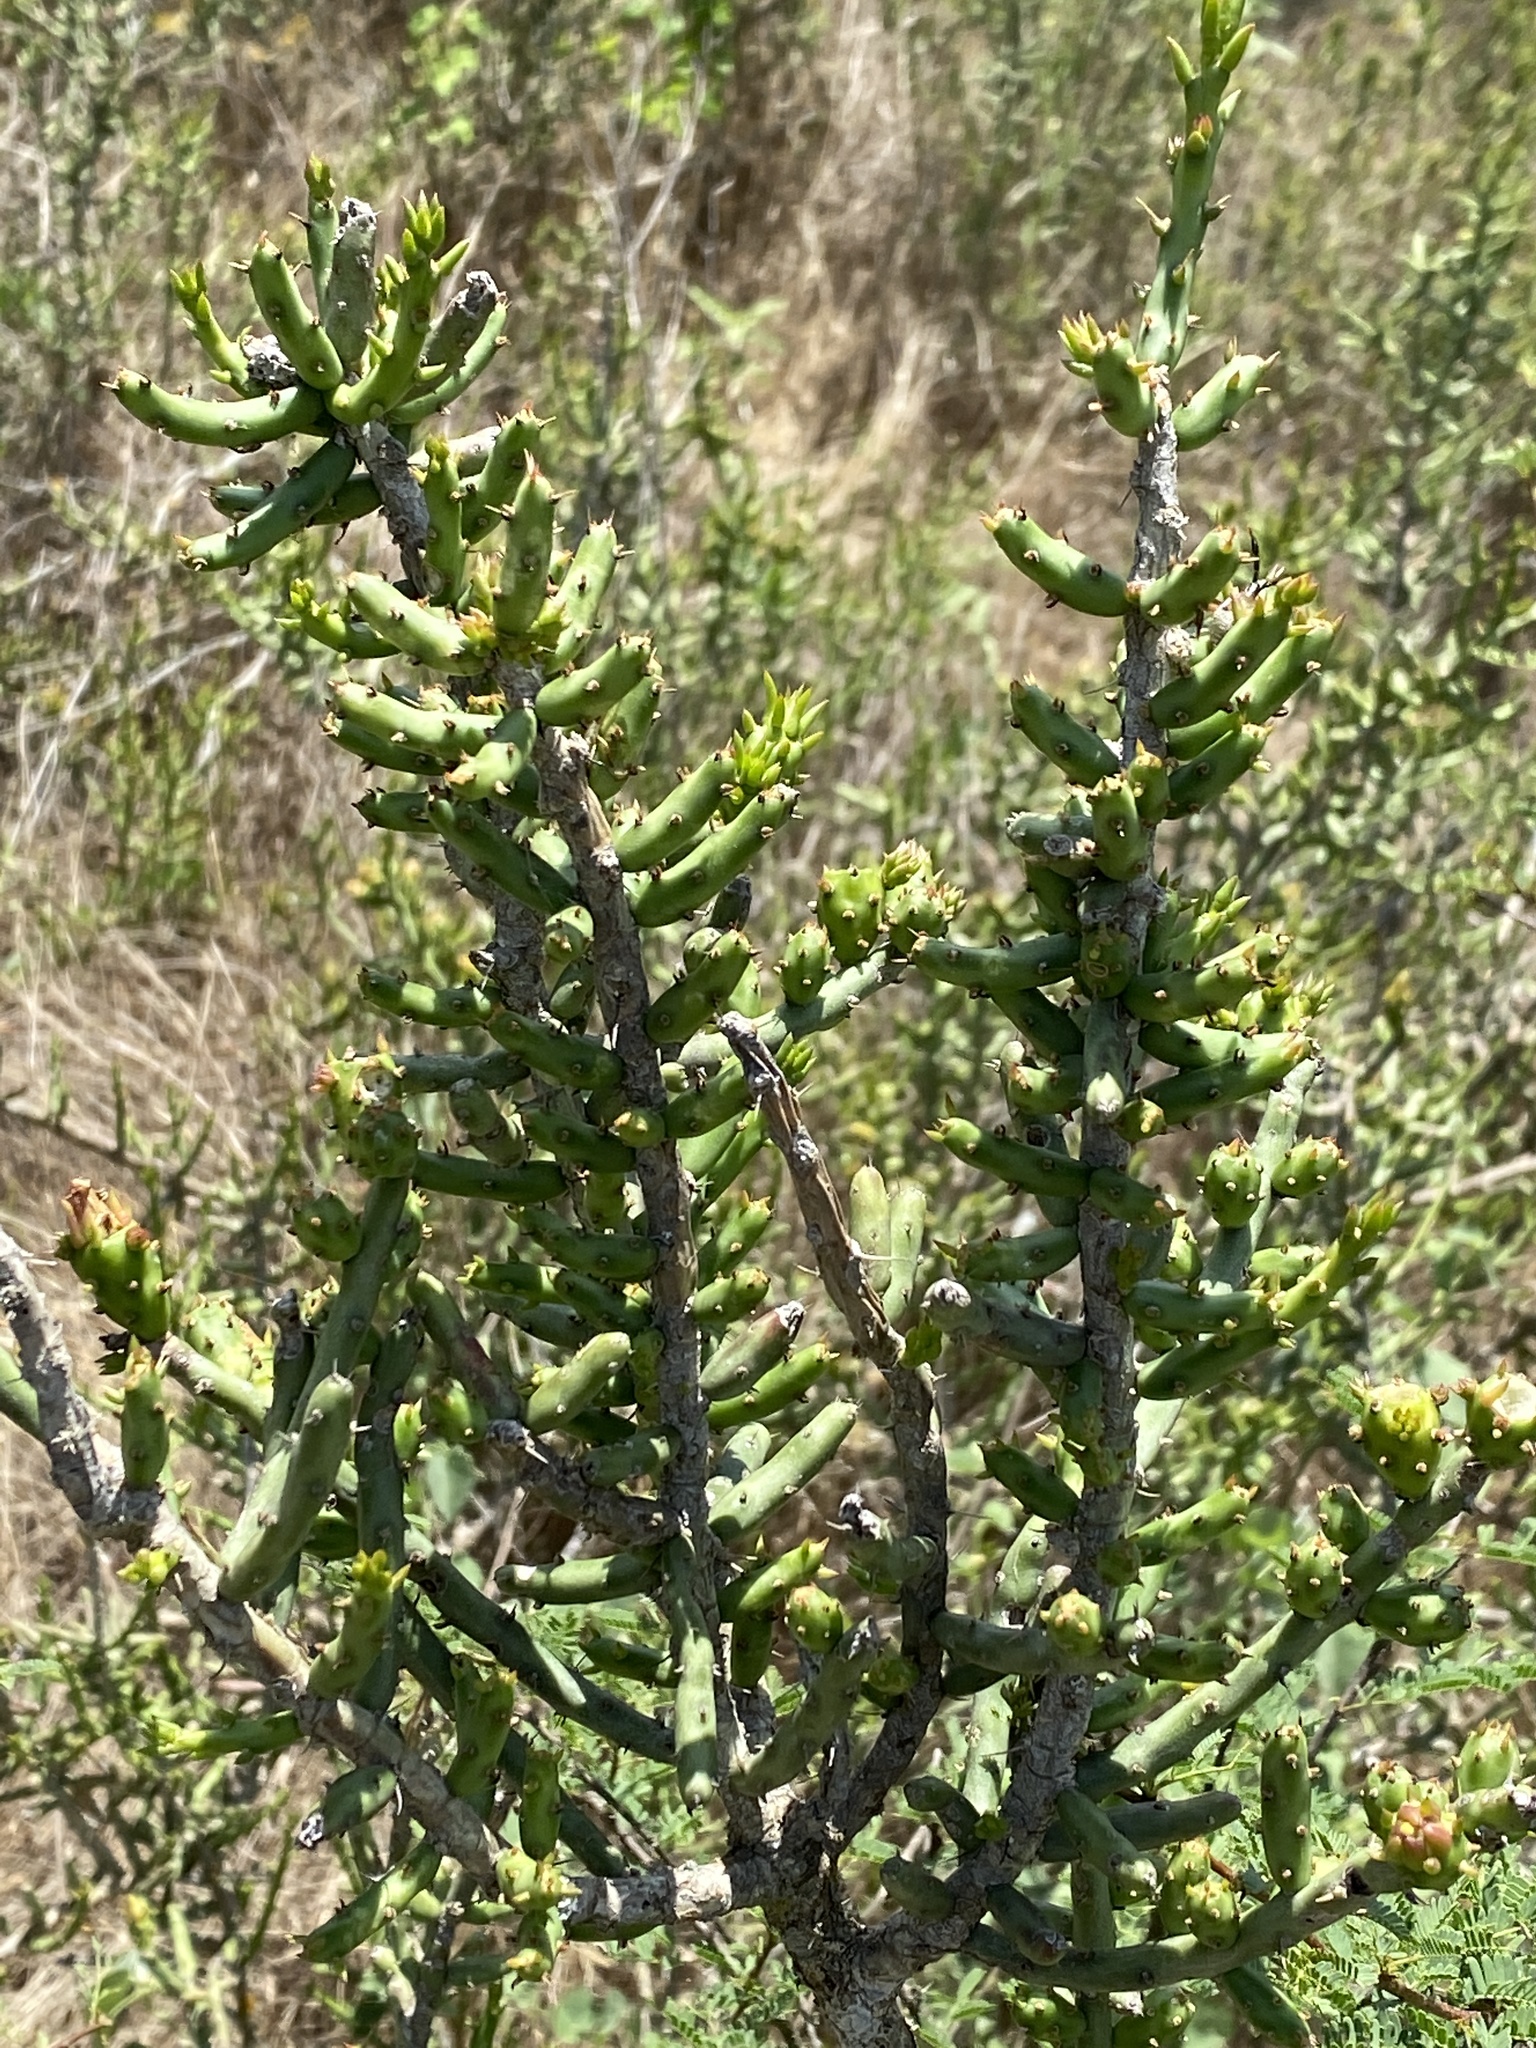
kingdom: Plantae
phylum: Tracheophyta
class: Magnoliopsida
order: Caryophyllales
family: Cactaceae
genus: Cylindropuntia
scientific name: Cylindropuntia leptocaulis
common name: Christmas cactus
